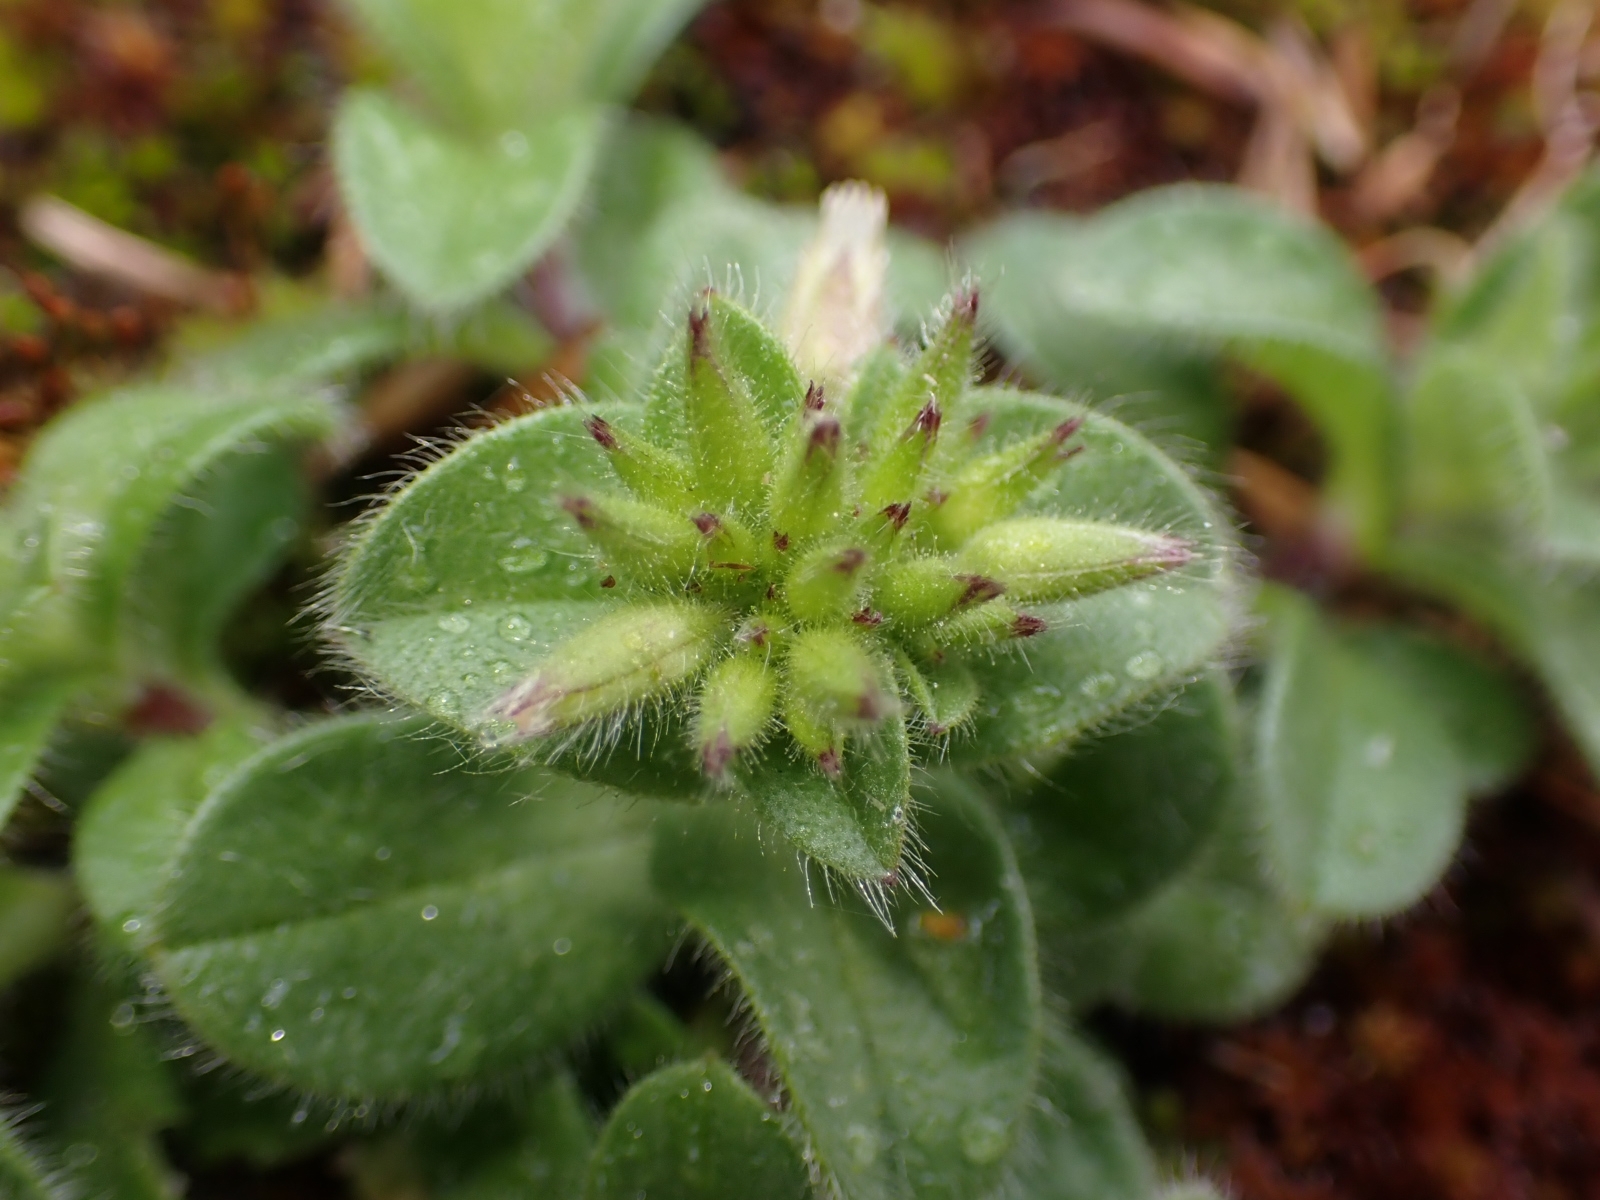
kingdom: Plantae
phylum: Tracheophyta
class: Magnoliopsida
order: Caryophyllales
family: Caryophyllaceae
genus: Cerastium
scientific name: Cerastium glomeratum
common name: Sticky chickweed
